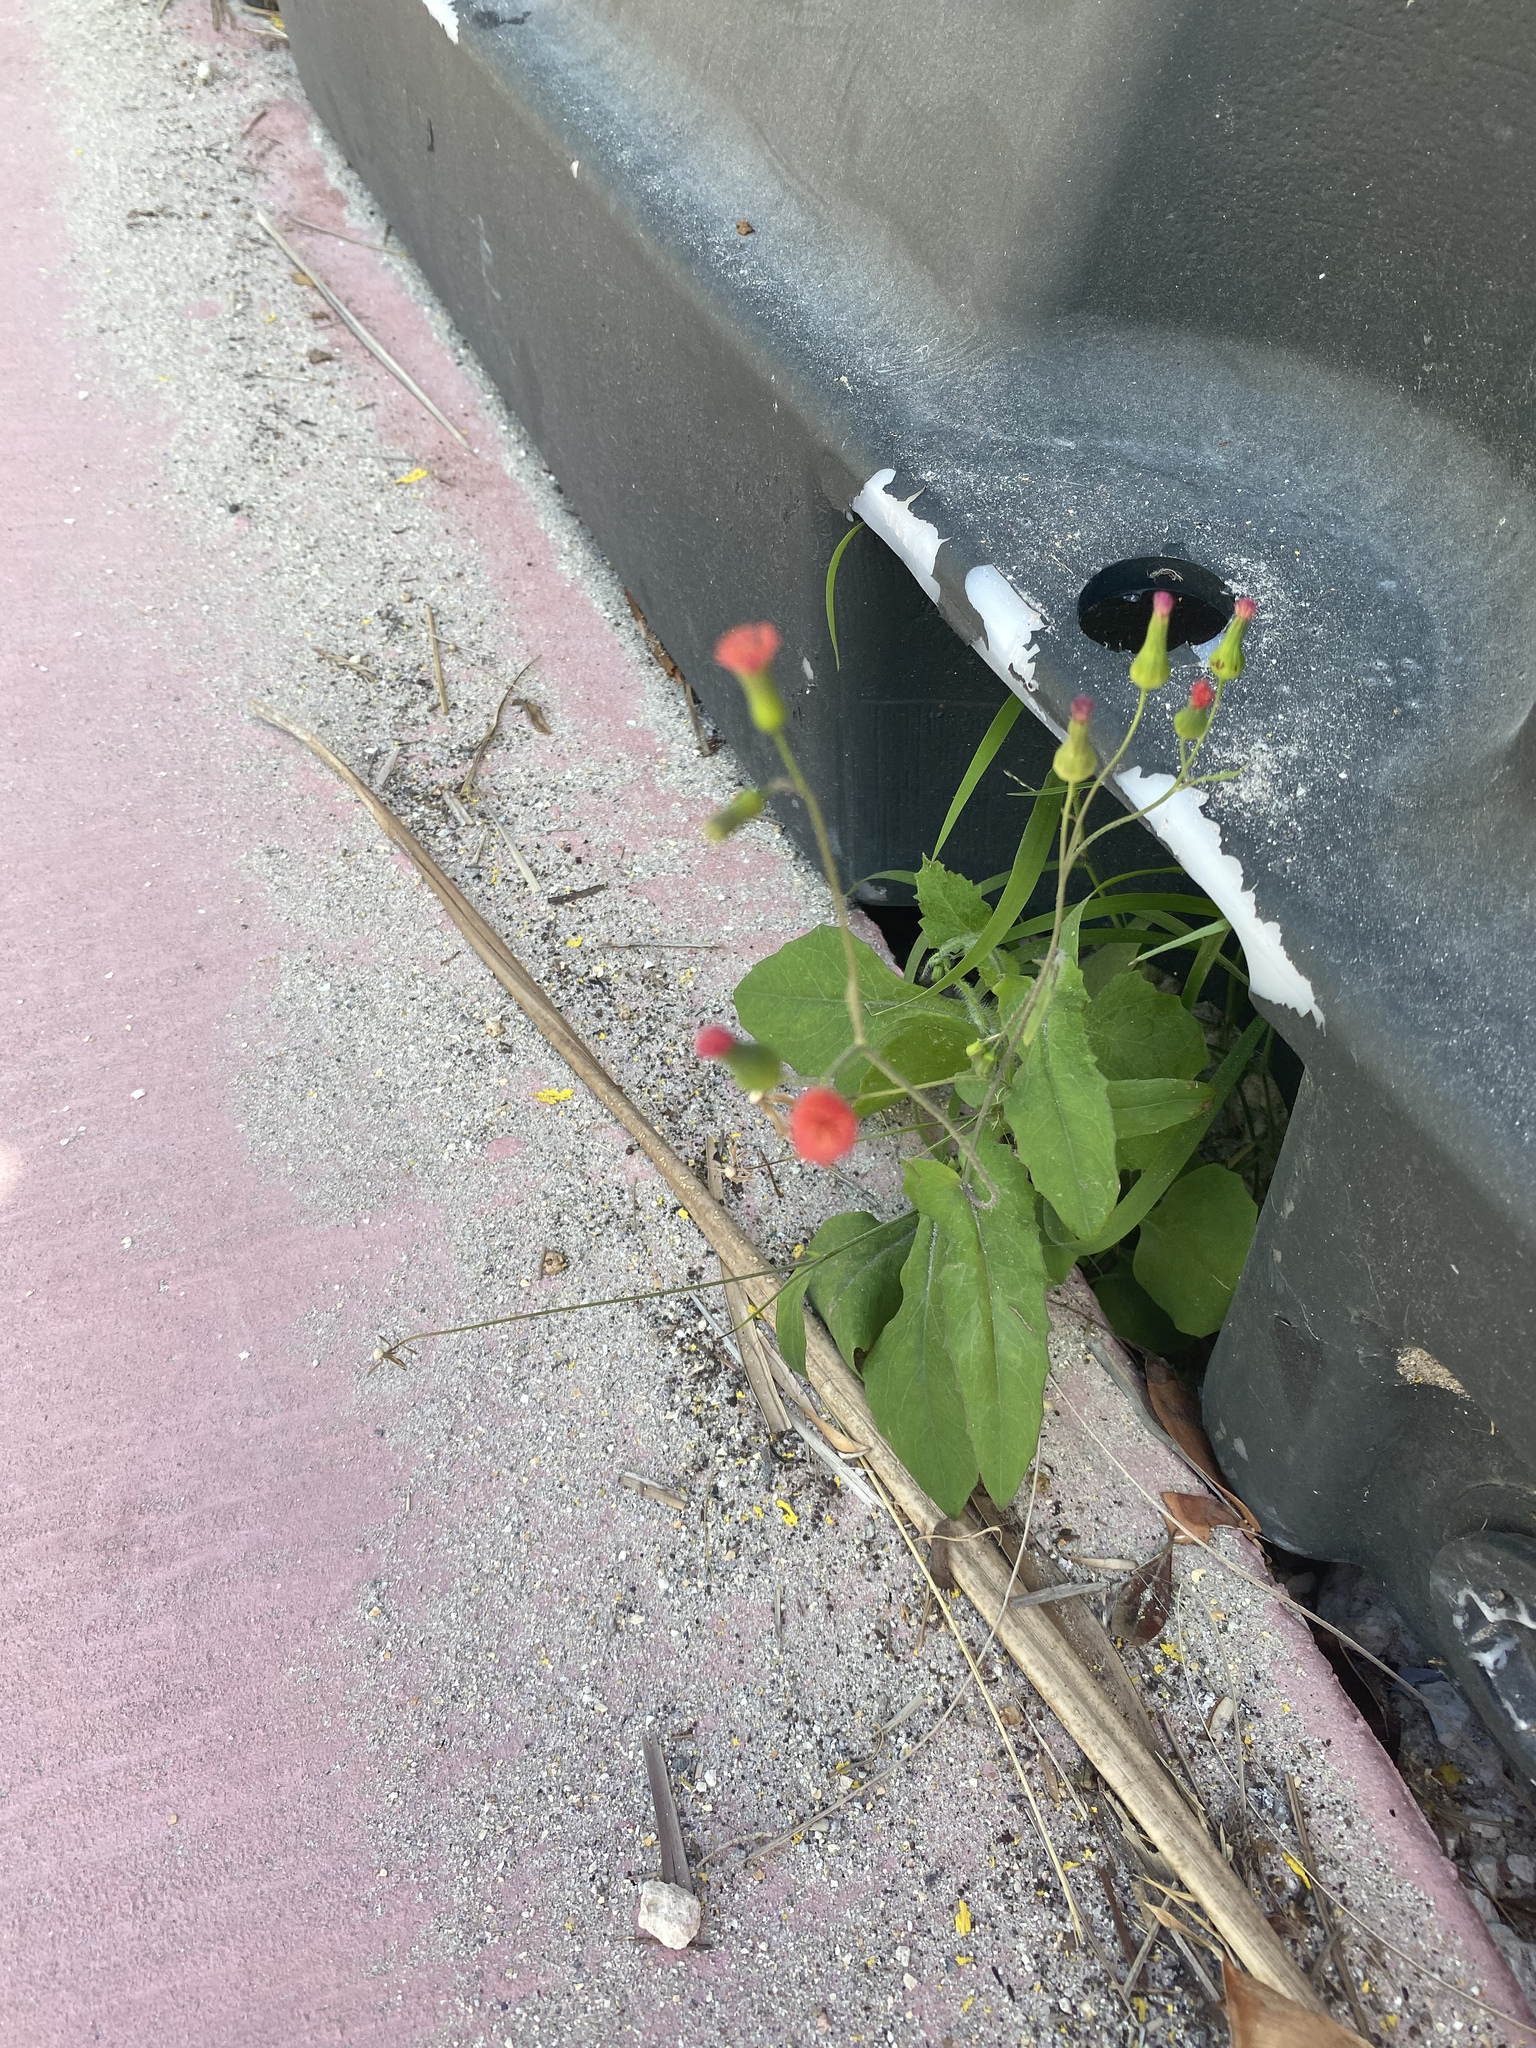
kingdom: Plantae
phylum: Tracheophyta
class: Magnoliopsida
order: Asterales
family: Asteraceae
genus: Emilia
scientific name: Emilia fosbergii
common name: Florida tasselflower
